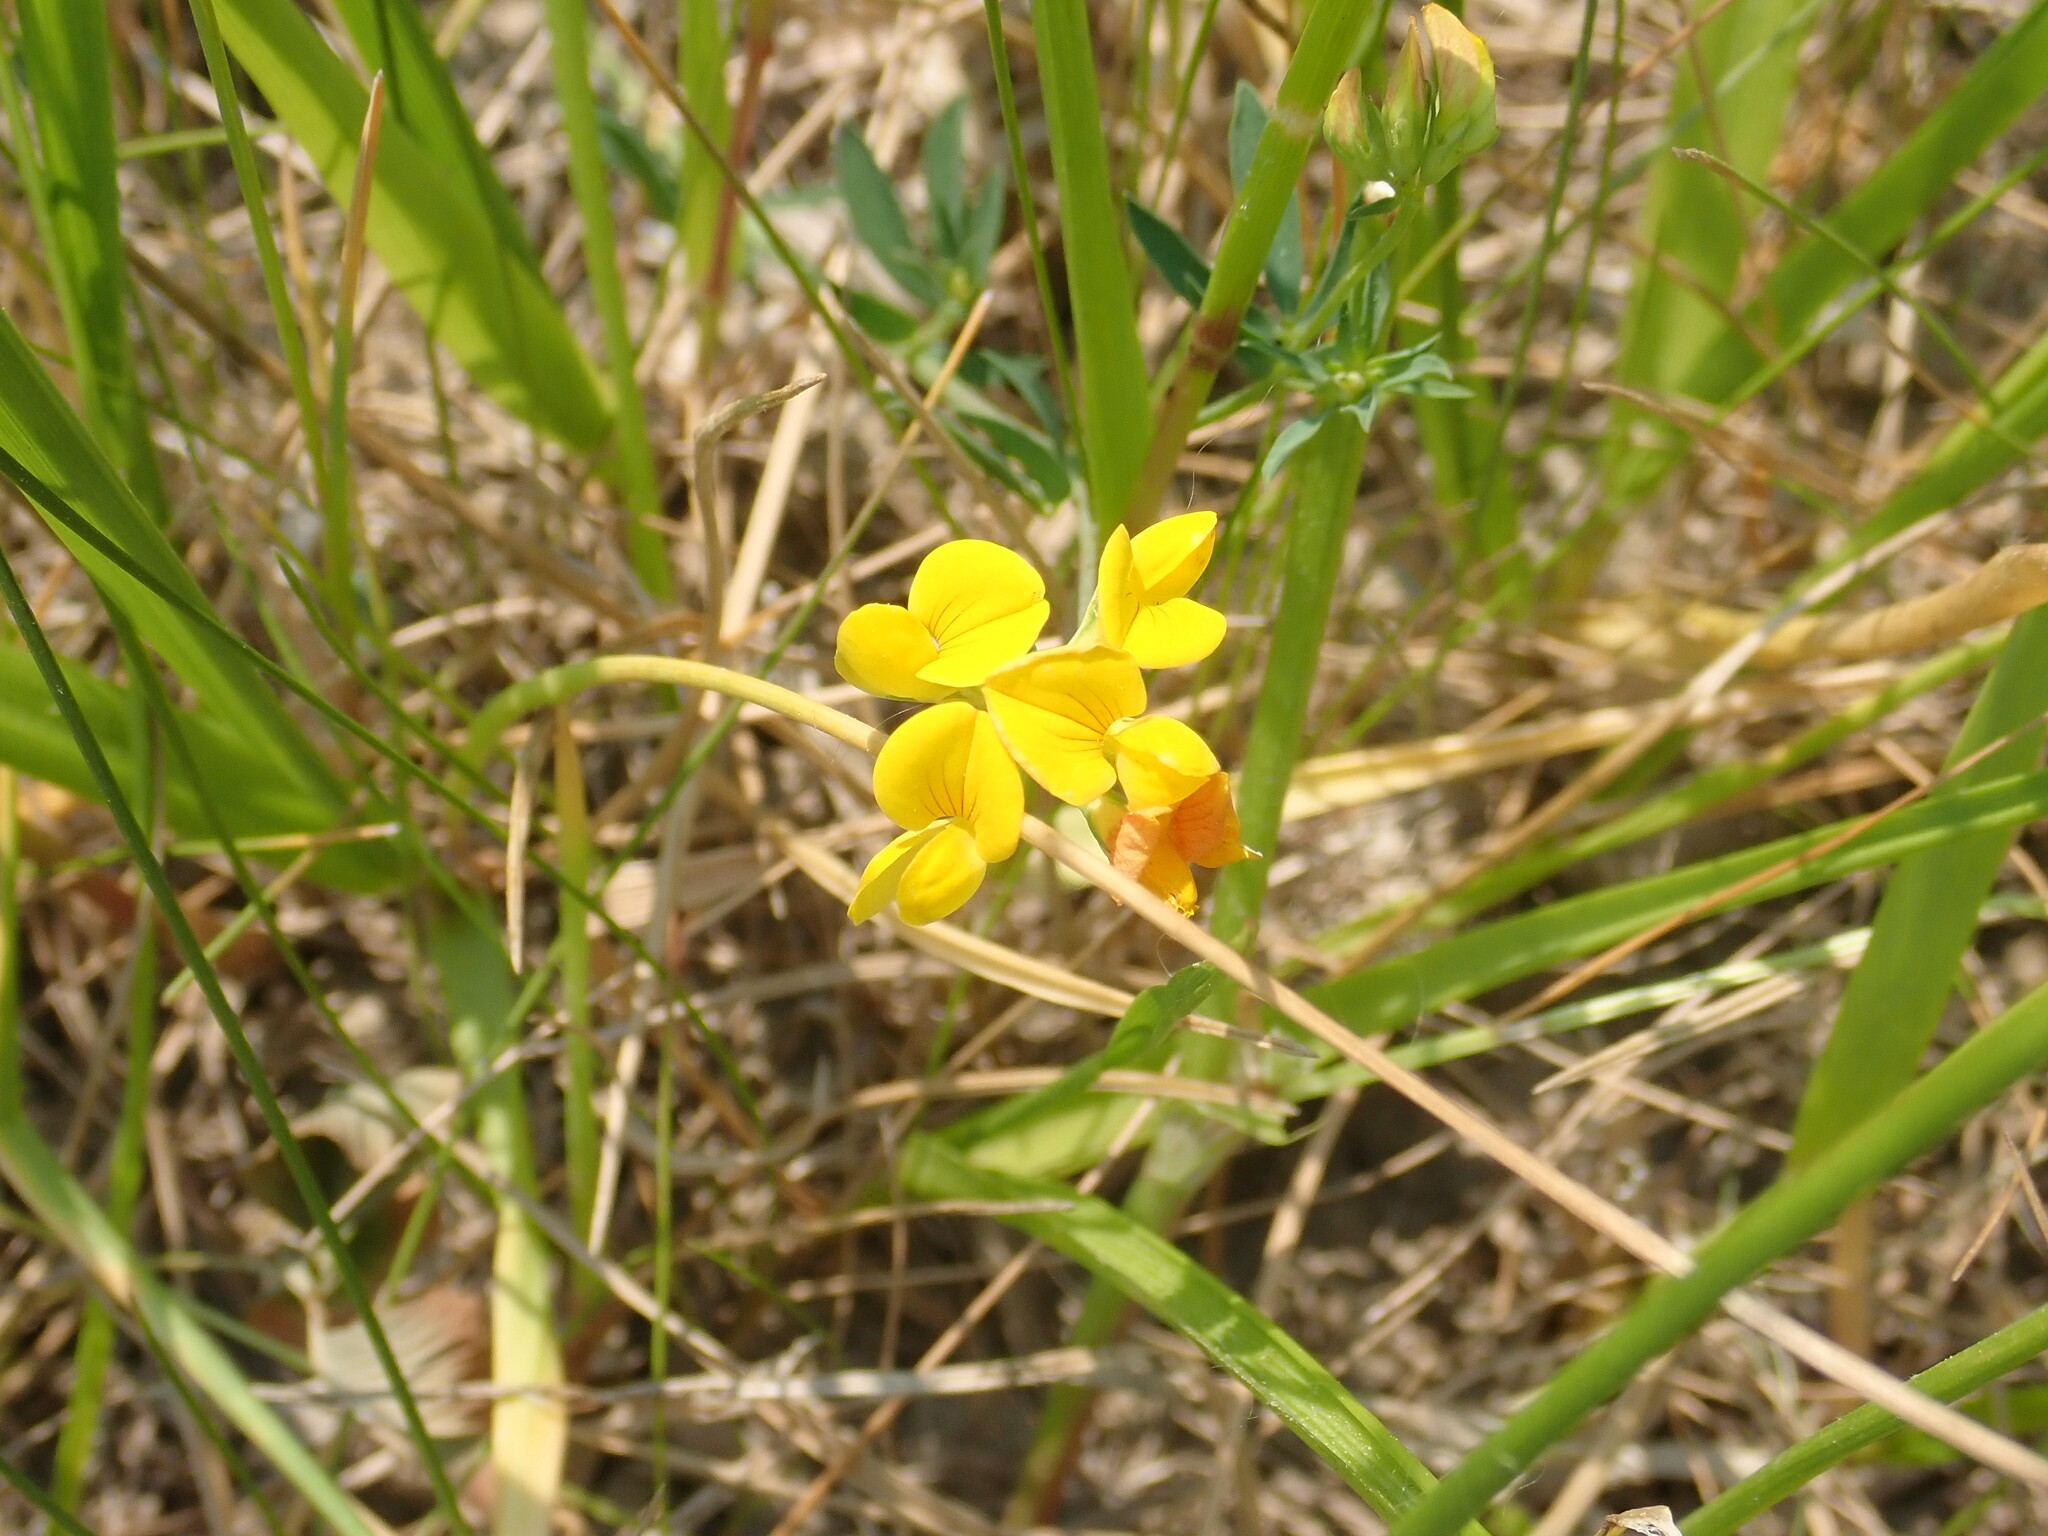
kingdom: Plantae
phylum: Tracheophyta
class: Magnoliopsida
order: Fabales
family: Fabaceae
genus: Lotus
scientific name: Lotus corniculatus
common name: Common bird's-foot-trefoil
